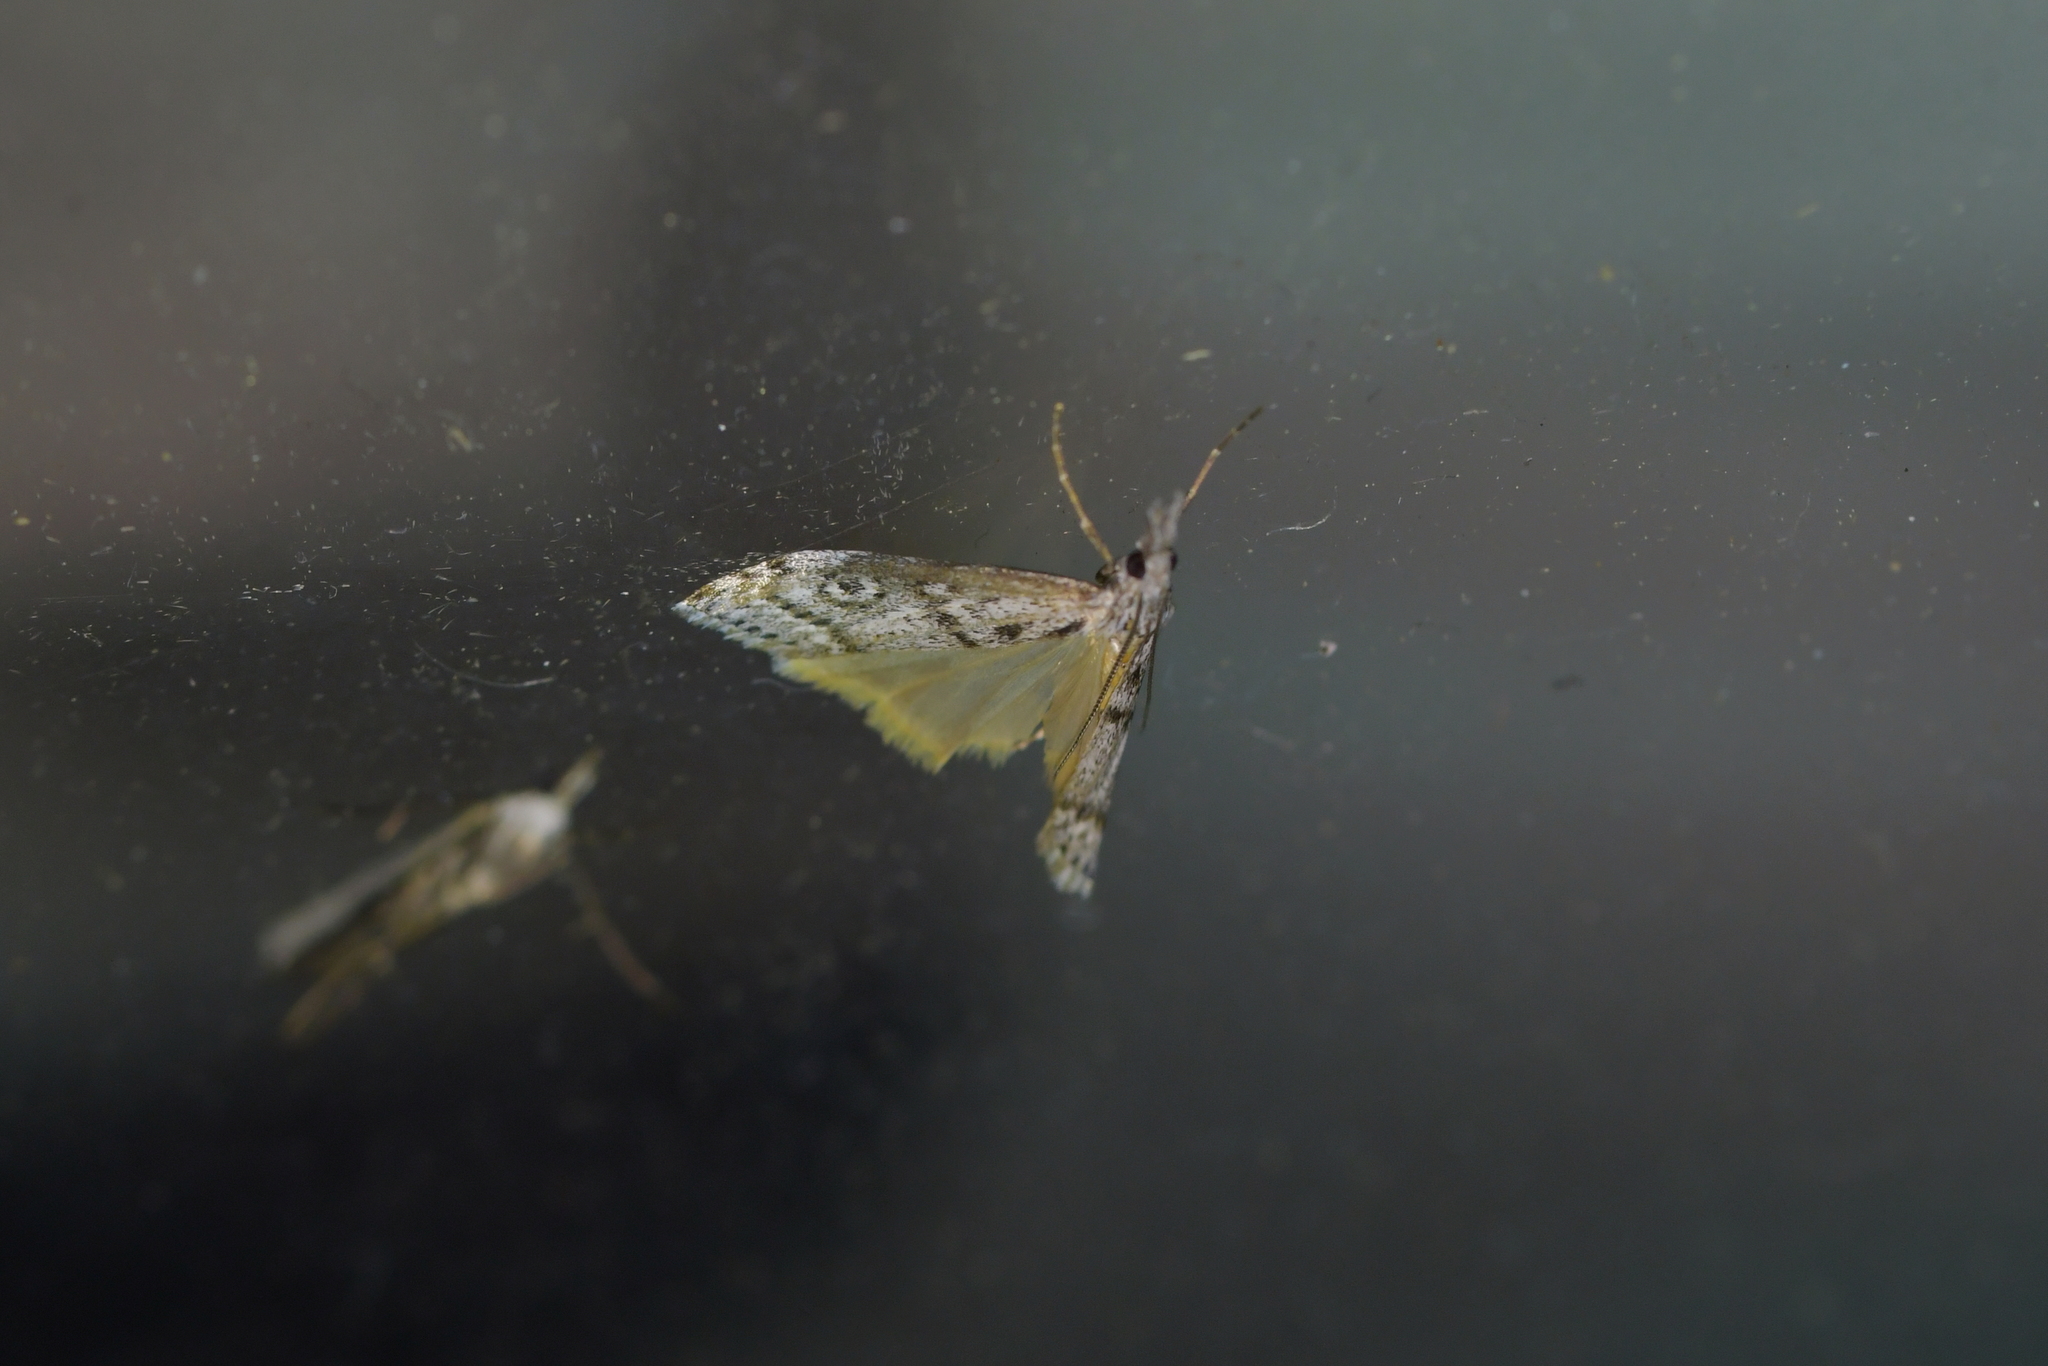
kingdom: Animalia
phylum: Arthropoda
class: Insecta
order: Lepidoptera
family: Crambidae
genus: Orocrambus
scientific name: Orocrambus cyclopicus
